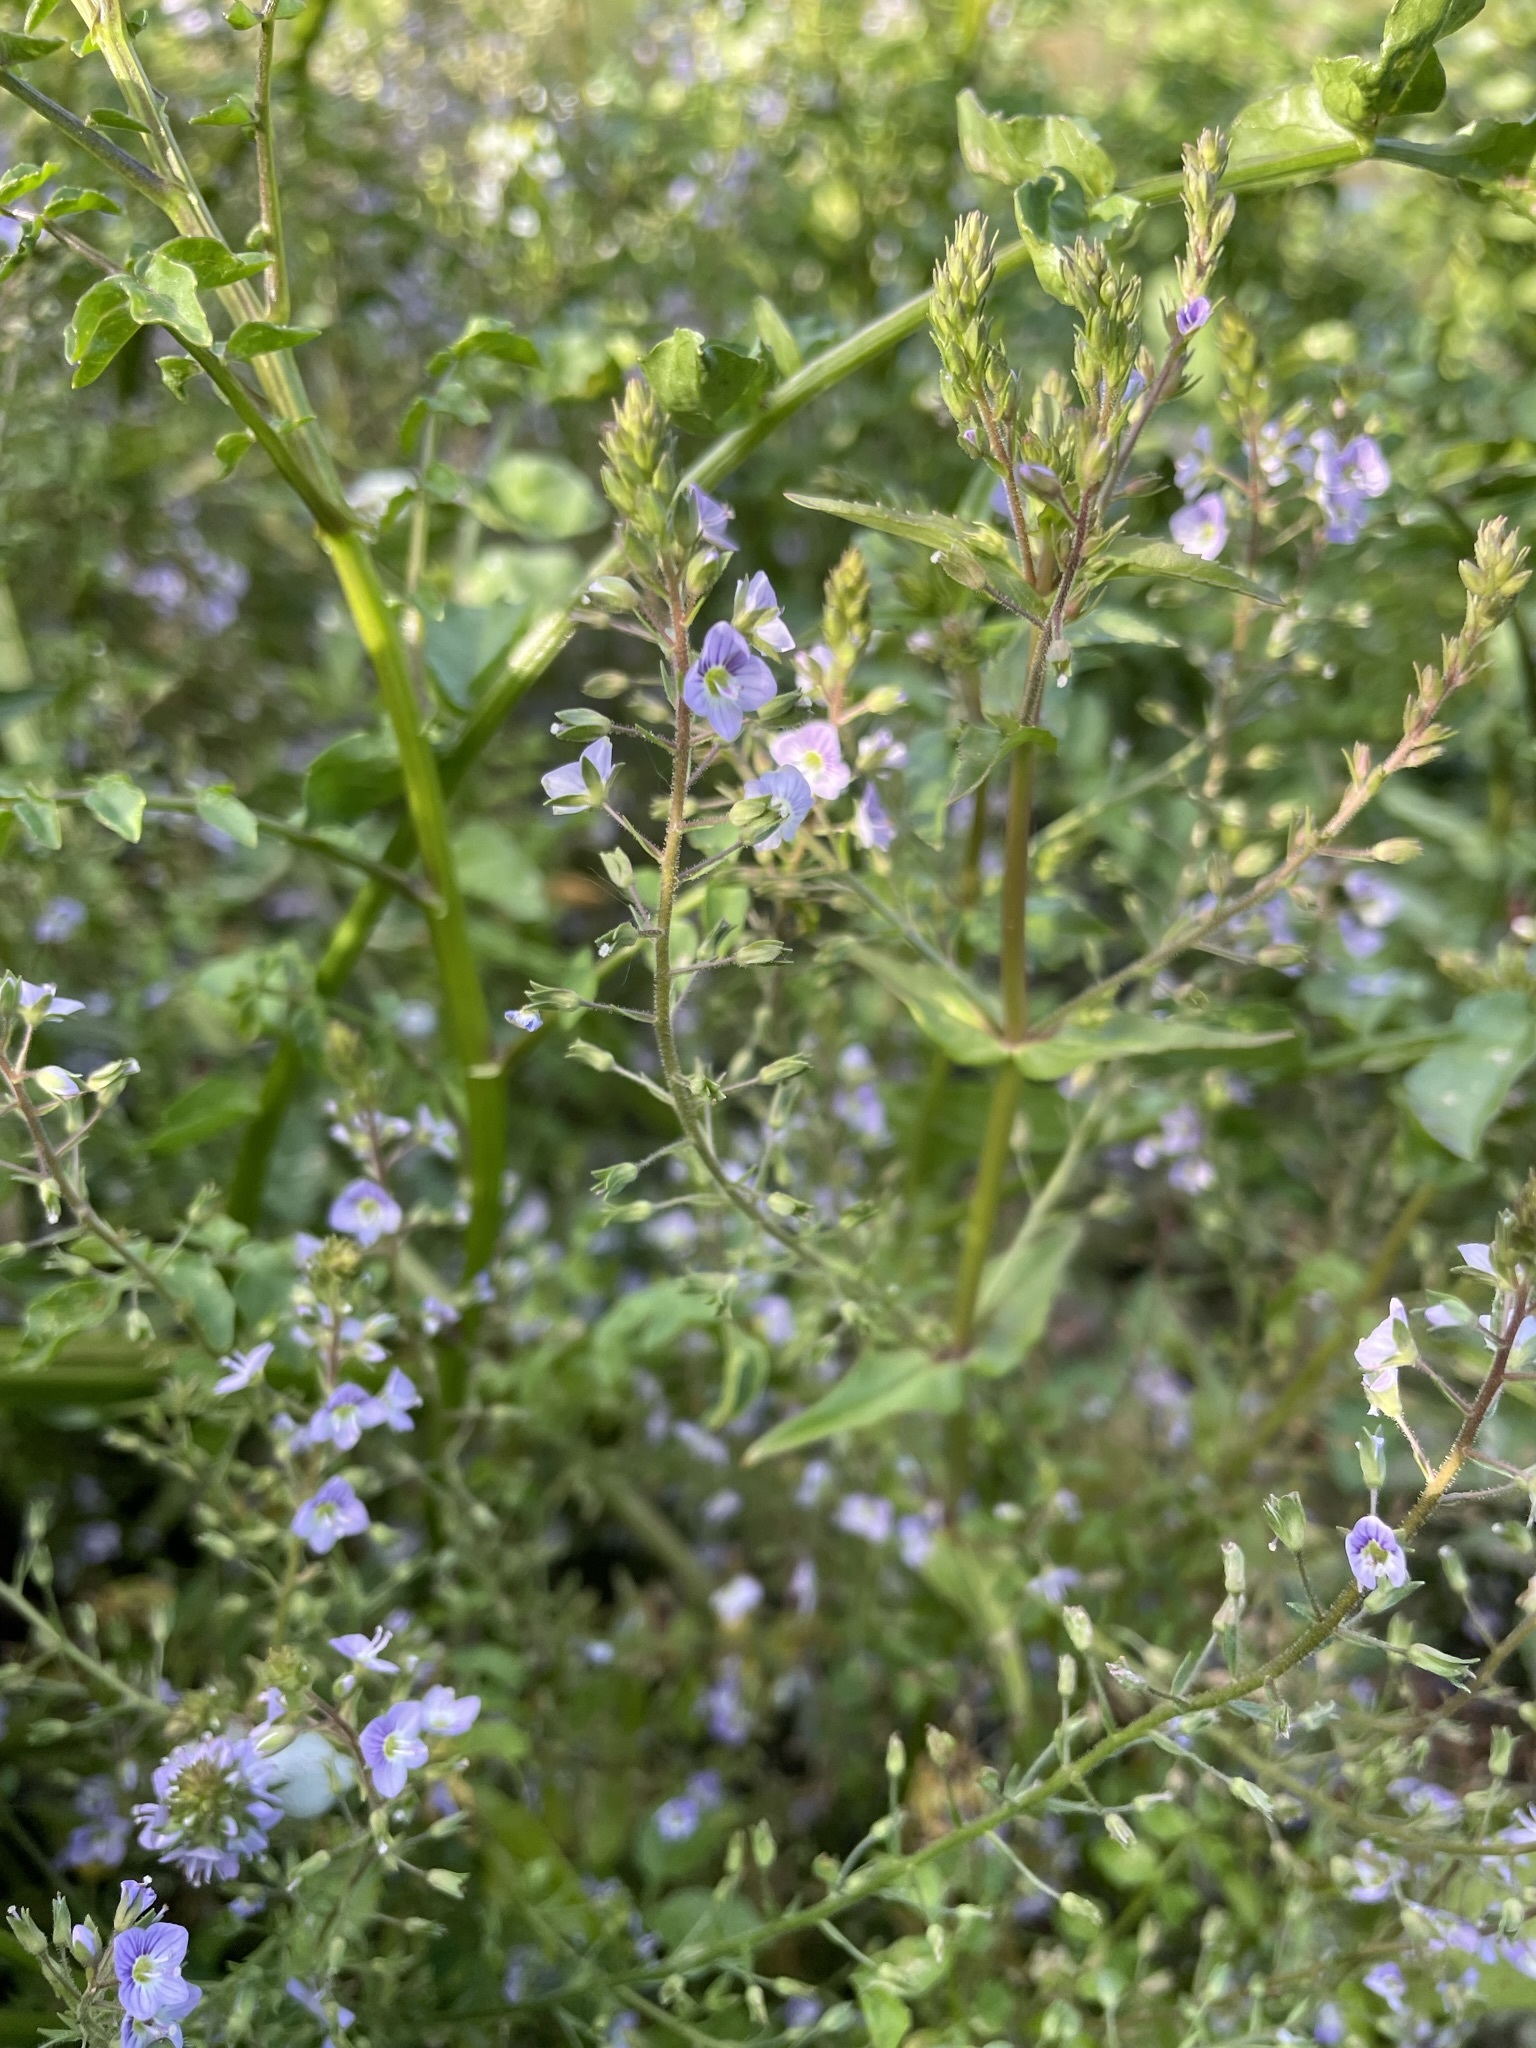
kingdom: Plantae
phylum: Tracheophyta
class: Magnoliopsida
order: Lamiales
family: Plantaginaceae
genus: Veronica
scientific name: Veronica anagallis-aquatica
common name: Water speedwell
